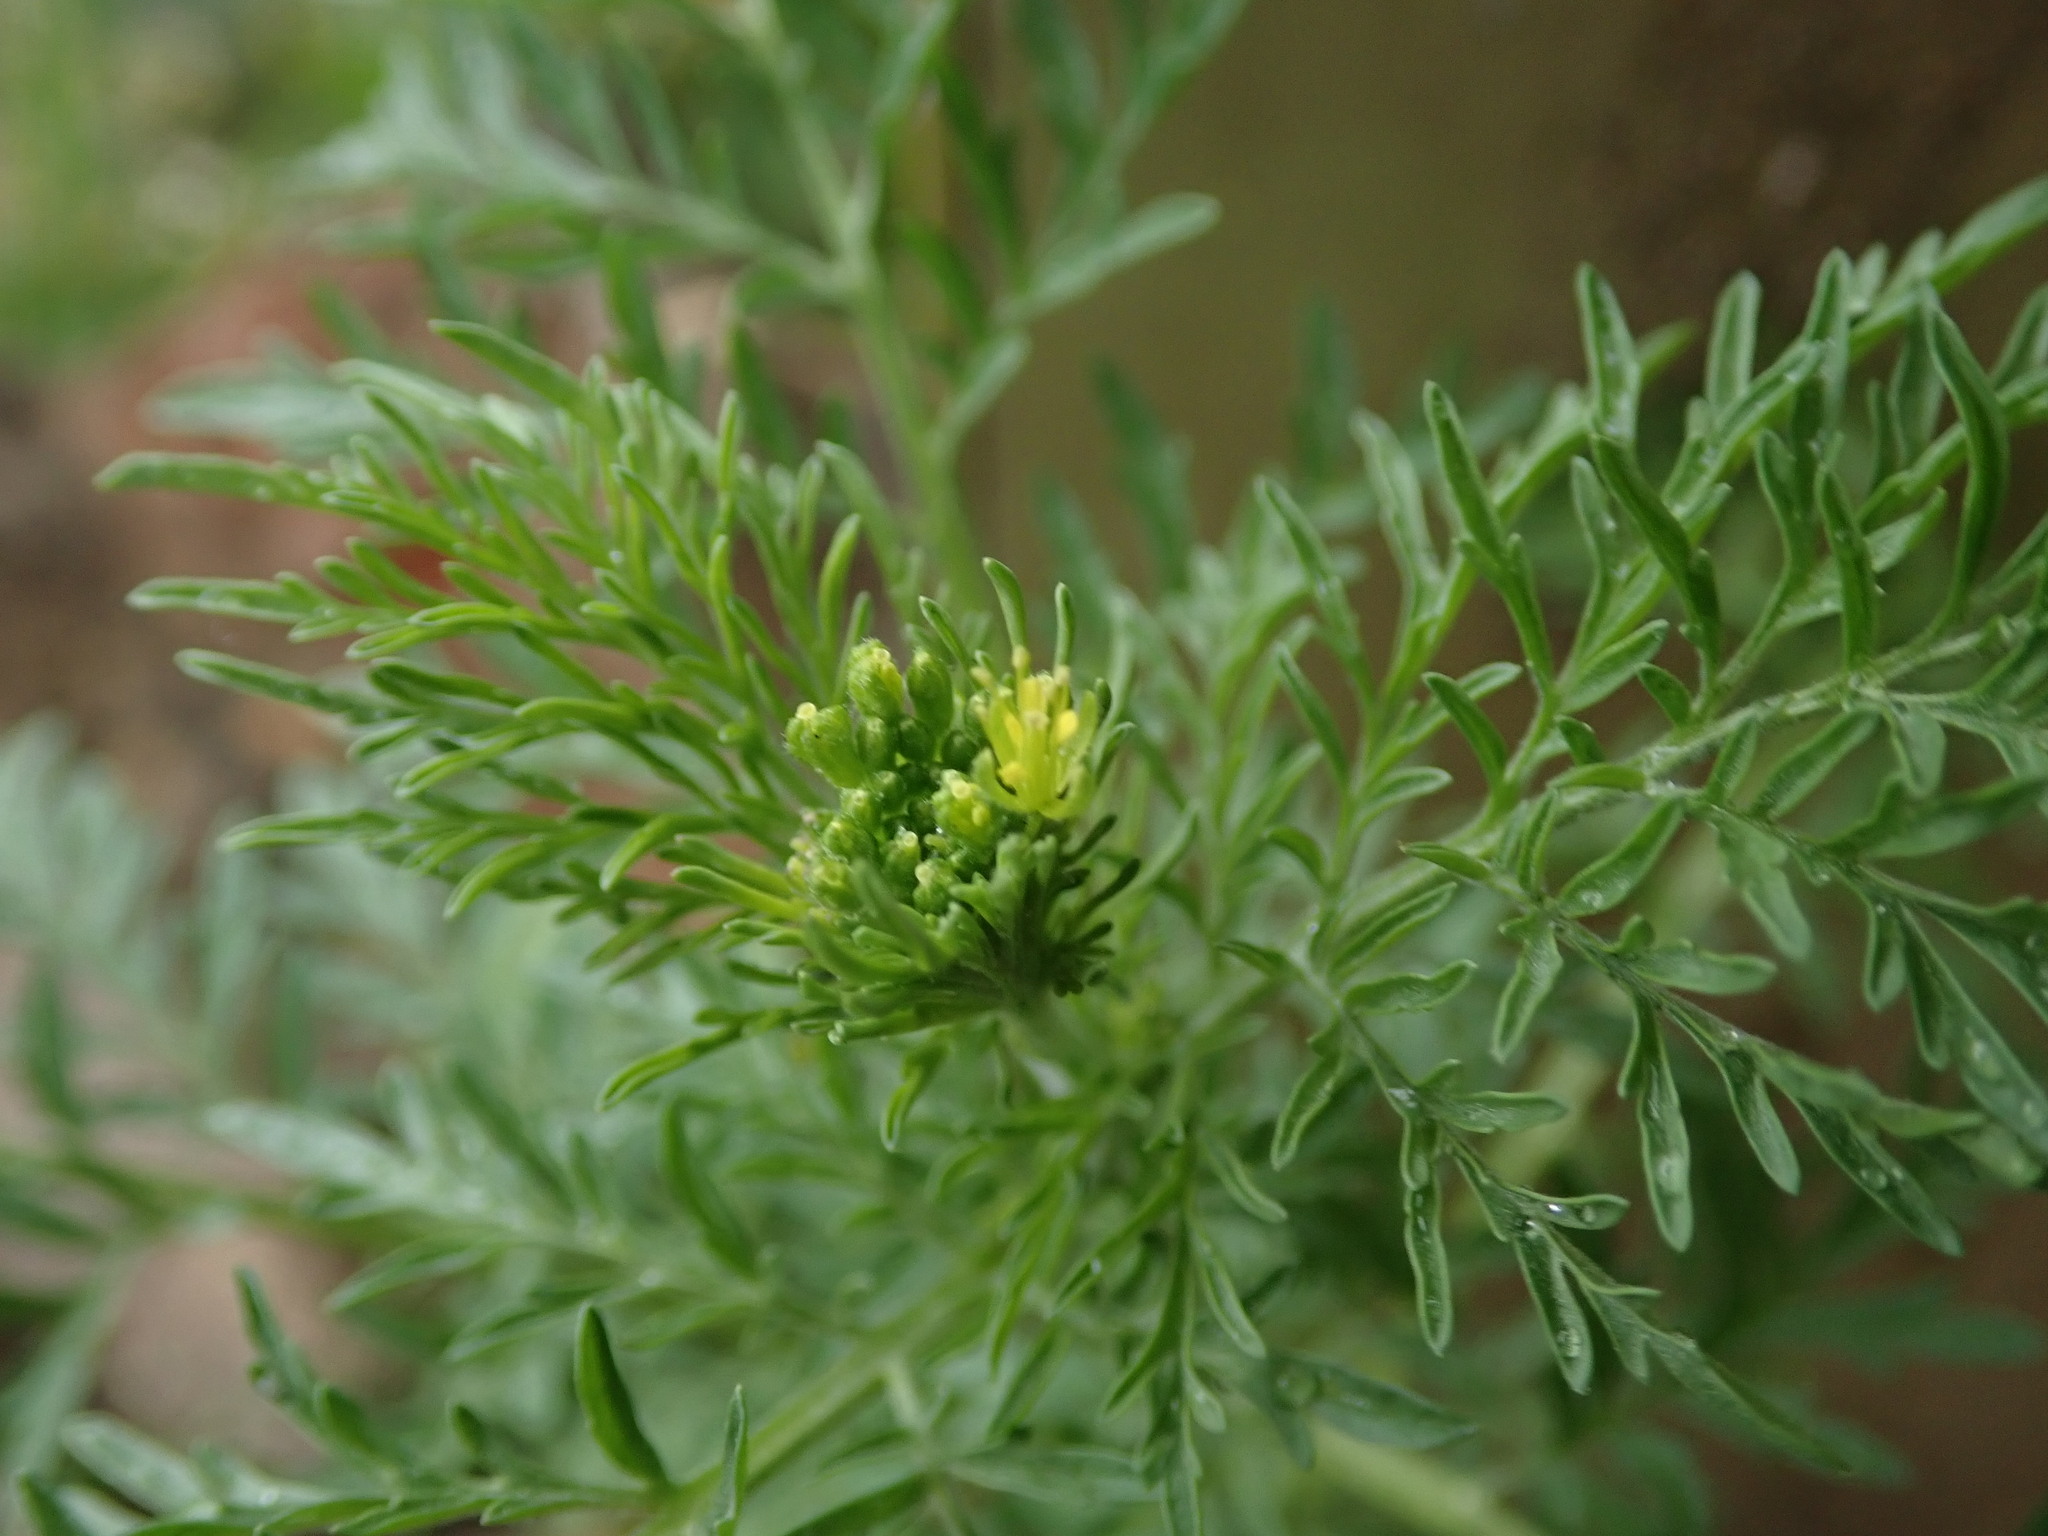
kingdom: Plantae
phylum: Tracheophyta
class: Magnoliopsida
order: Brassicales
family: Brassicaceae
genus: Descurainia
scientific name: Descurainia sophia
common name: Flixweed
